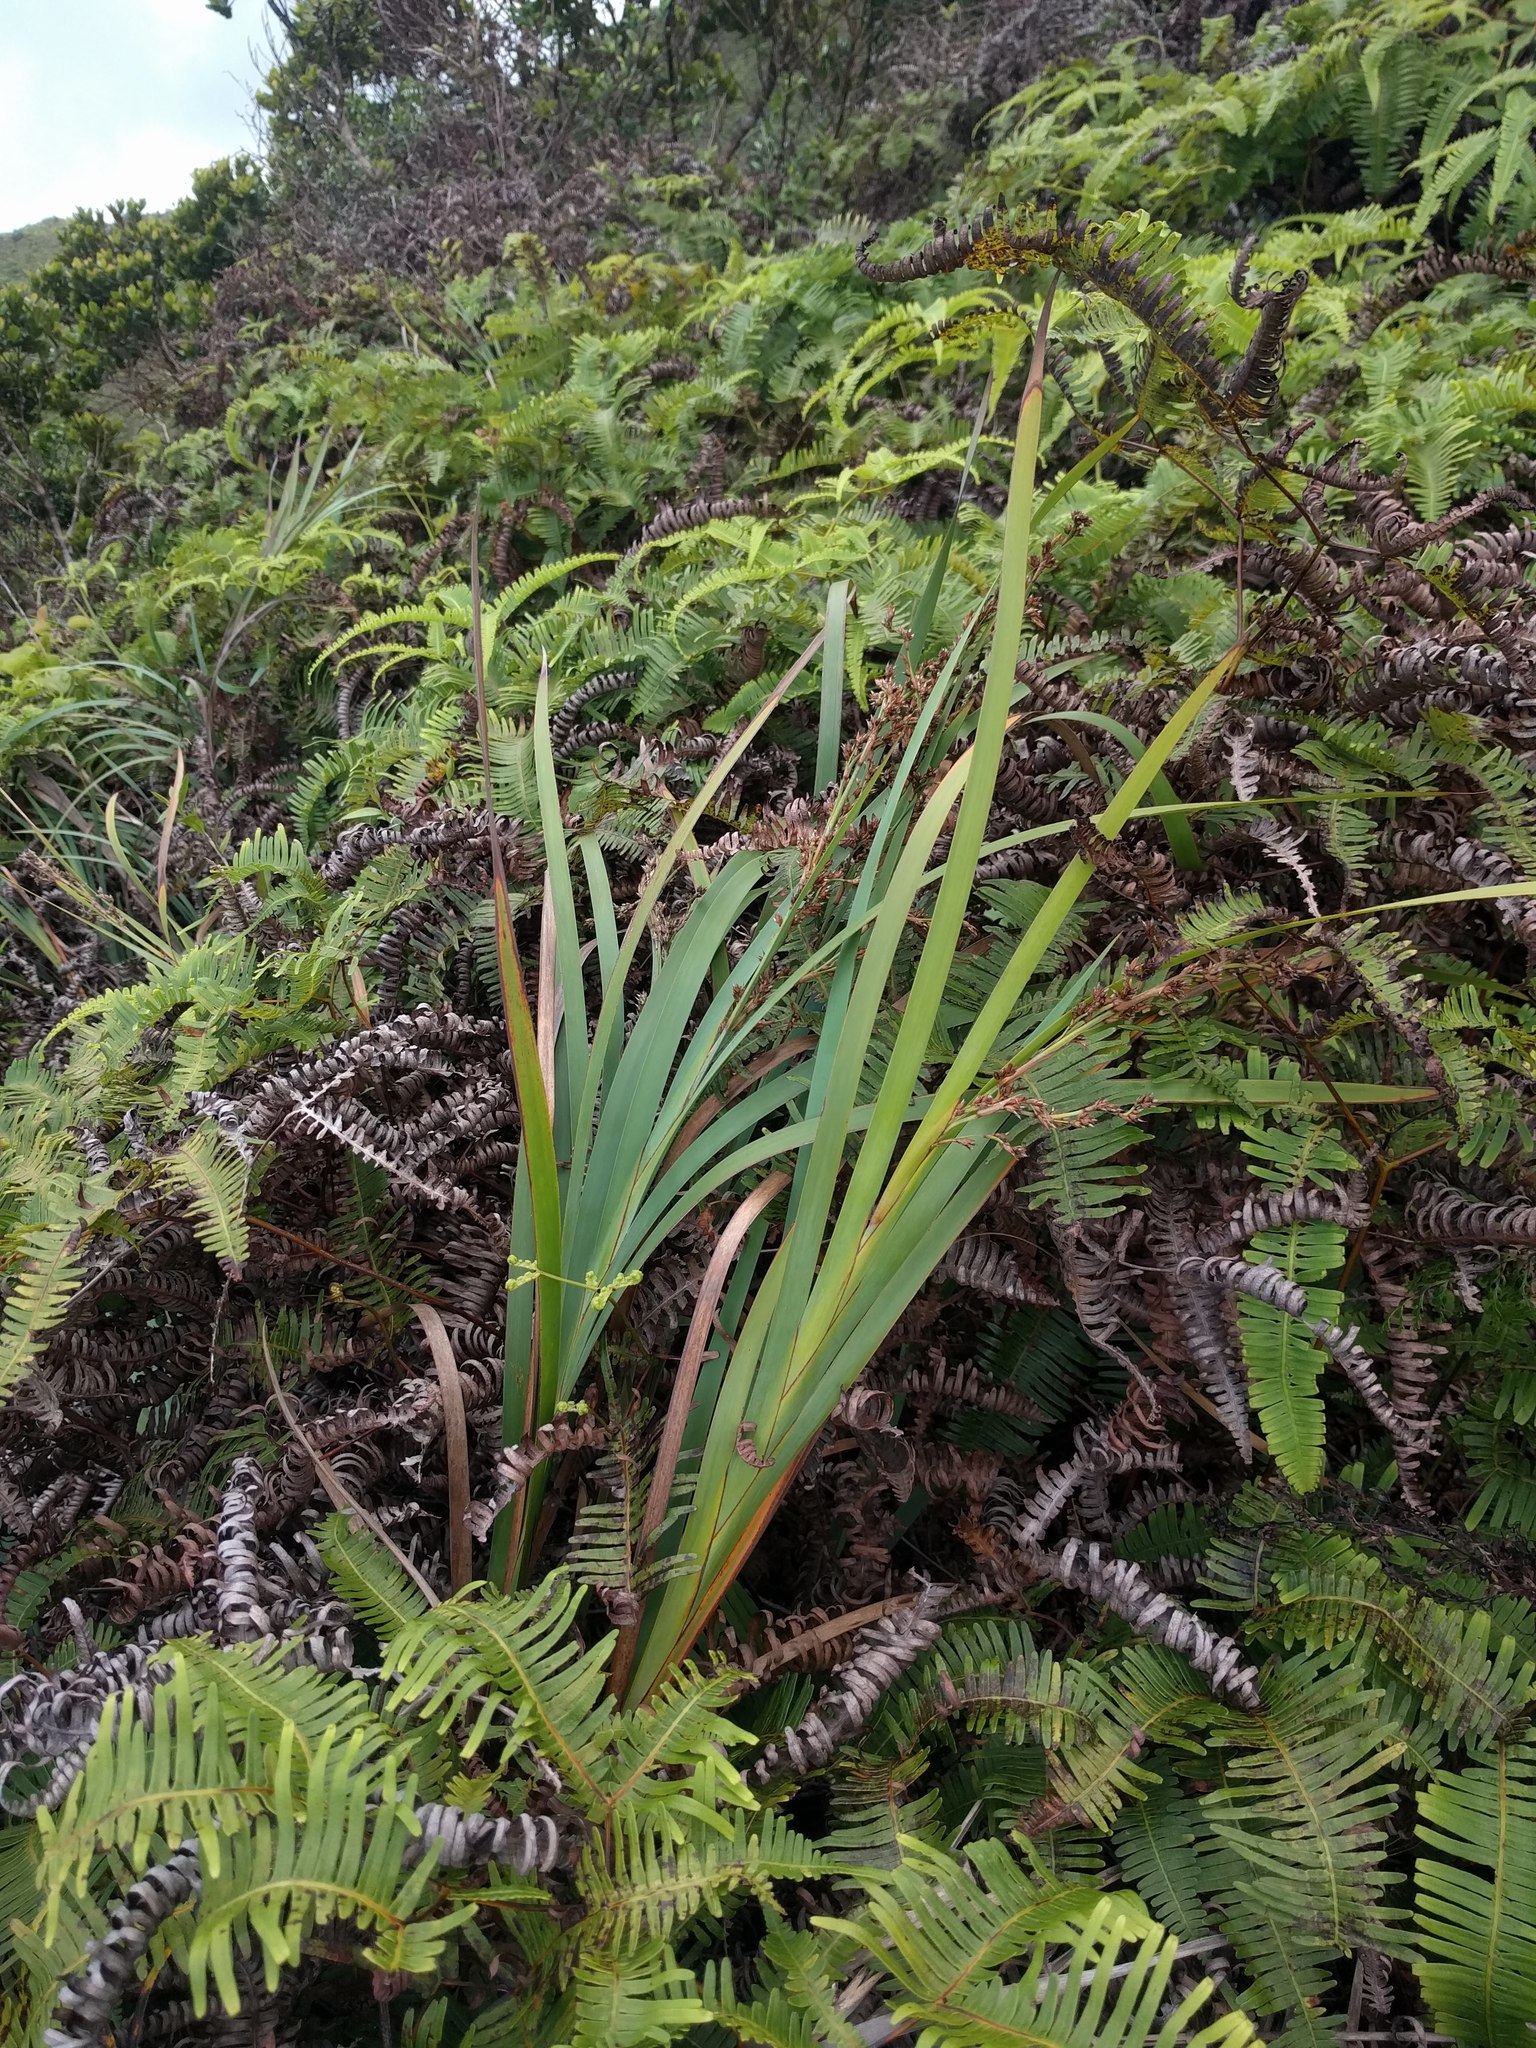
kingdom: Plantae
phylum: Tracheophyta
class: Liliopsida
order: Poales
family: Cyperaceae
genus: Machaerina
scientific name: Machaerina mariscoides
